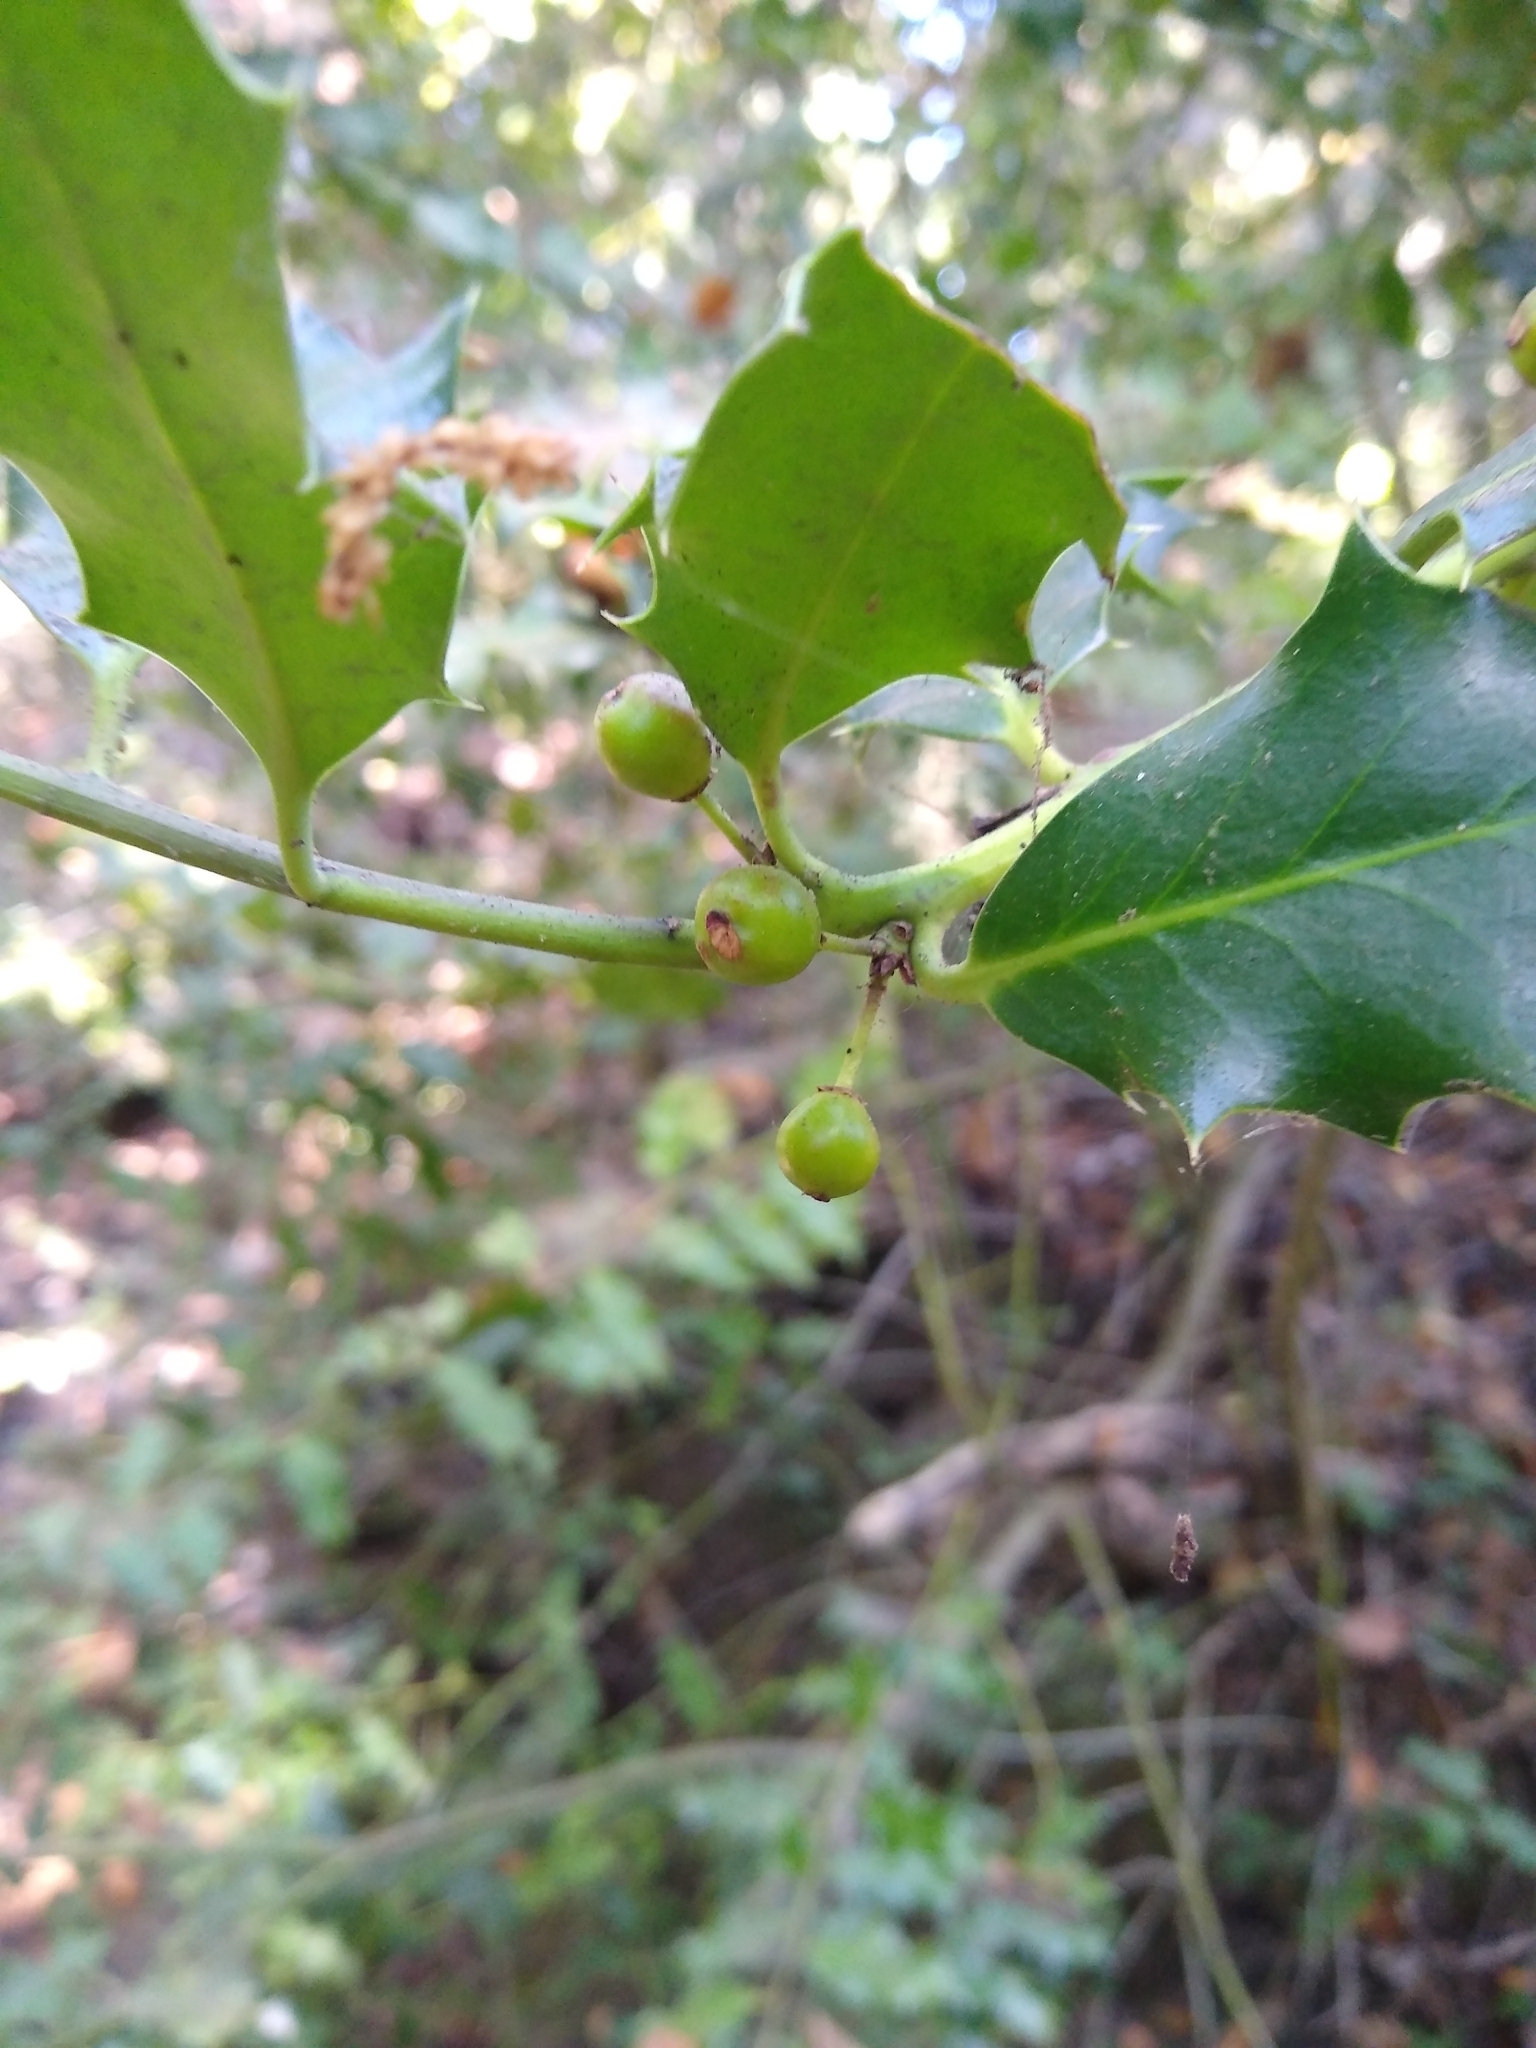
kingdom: Plantae
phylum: Tracheophyta
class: Magnoliopsida
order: Aquifoliales
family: Aquifoliaceae
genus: Ilex
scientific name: Ilex aquifolium
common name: English holly
